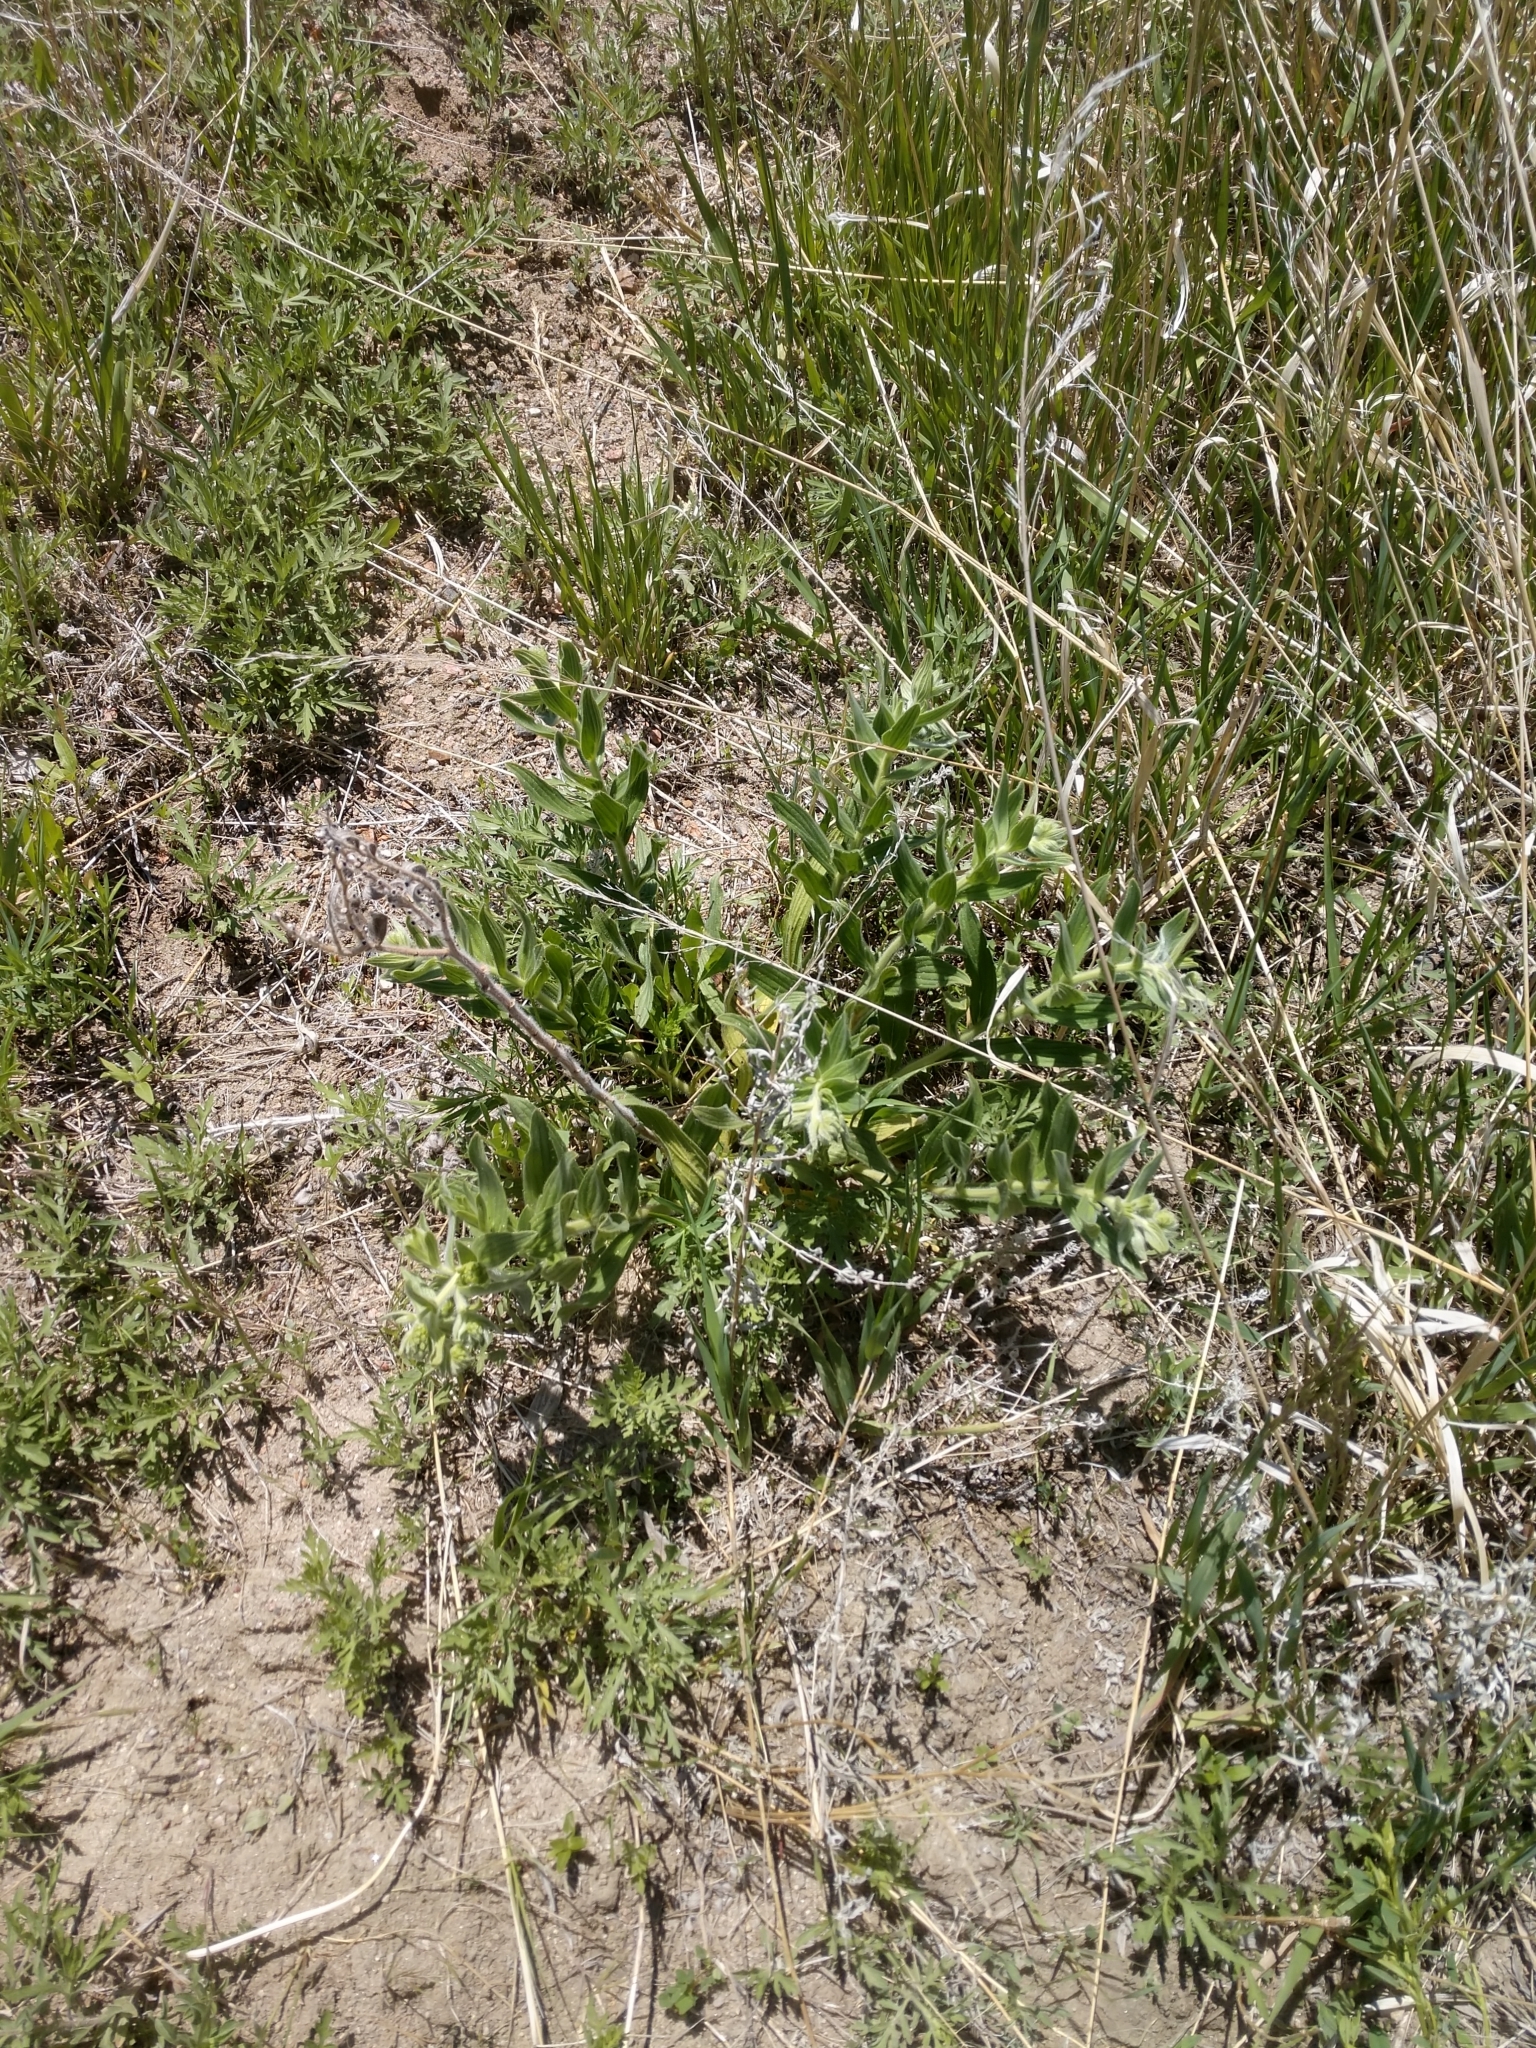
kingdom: Plantae
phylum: Tracheophyta
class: Magnoliopsida
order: Boraginales
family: Boraginaceae
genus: Lithospermum
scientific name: Lithospermum occidentale
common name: Western false gromwell
